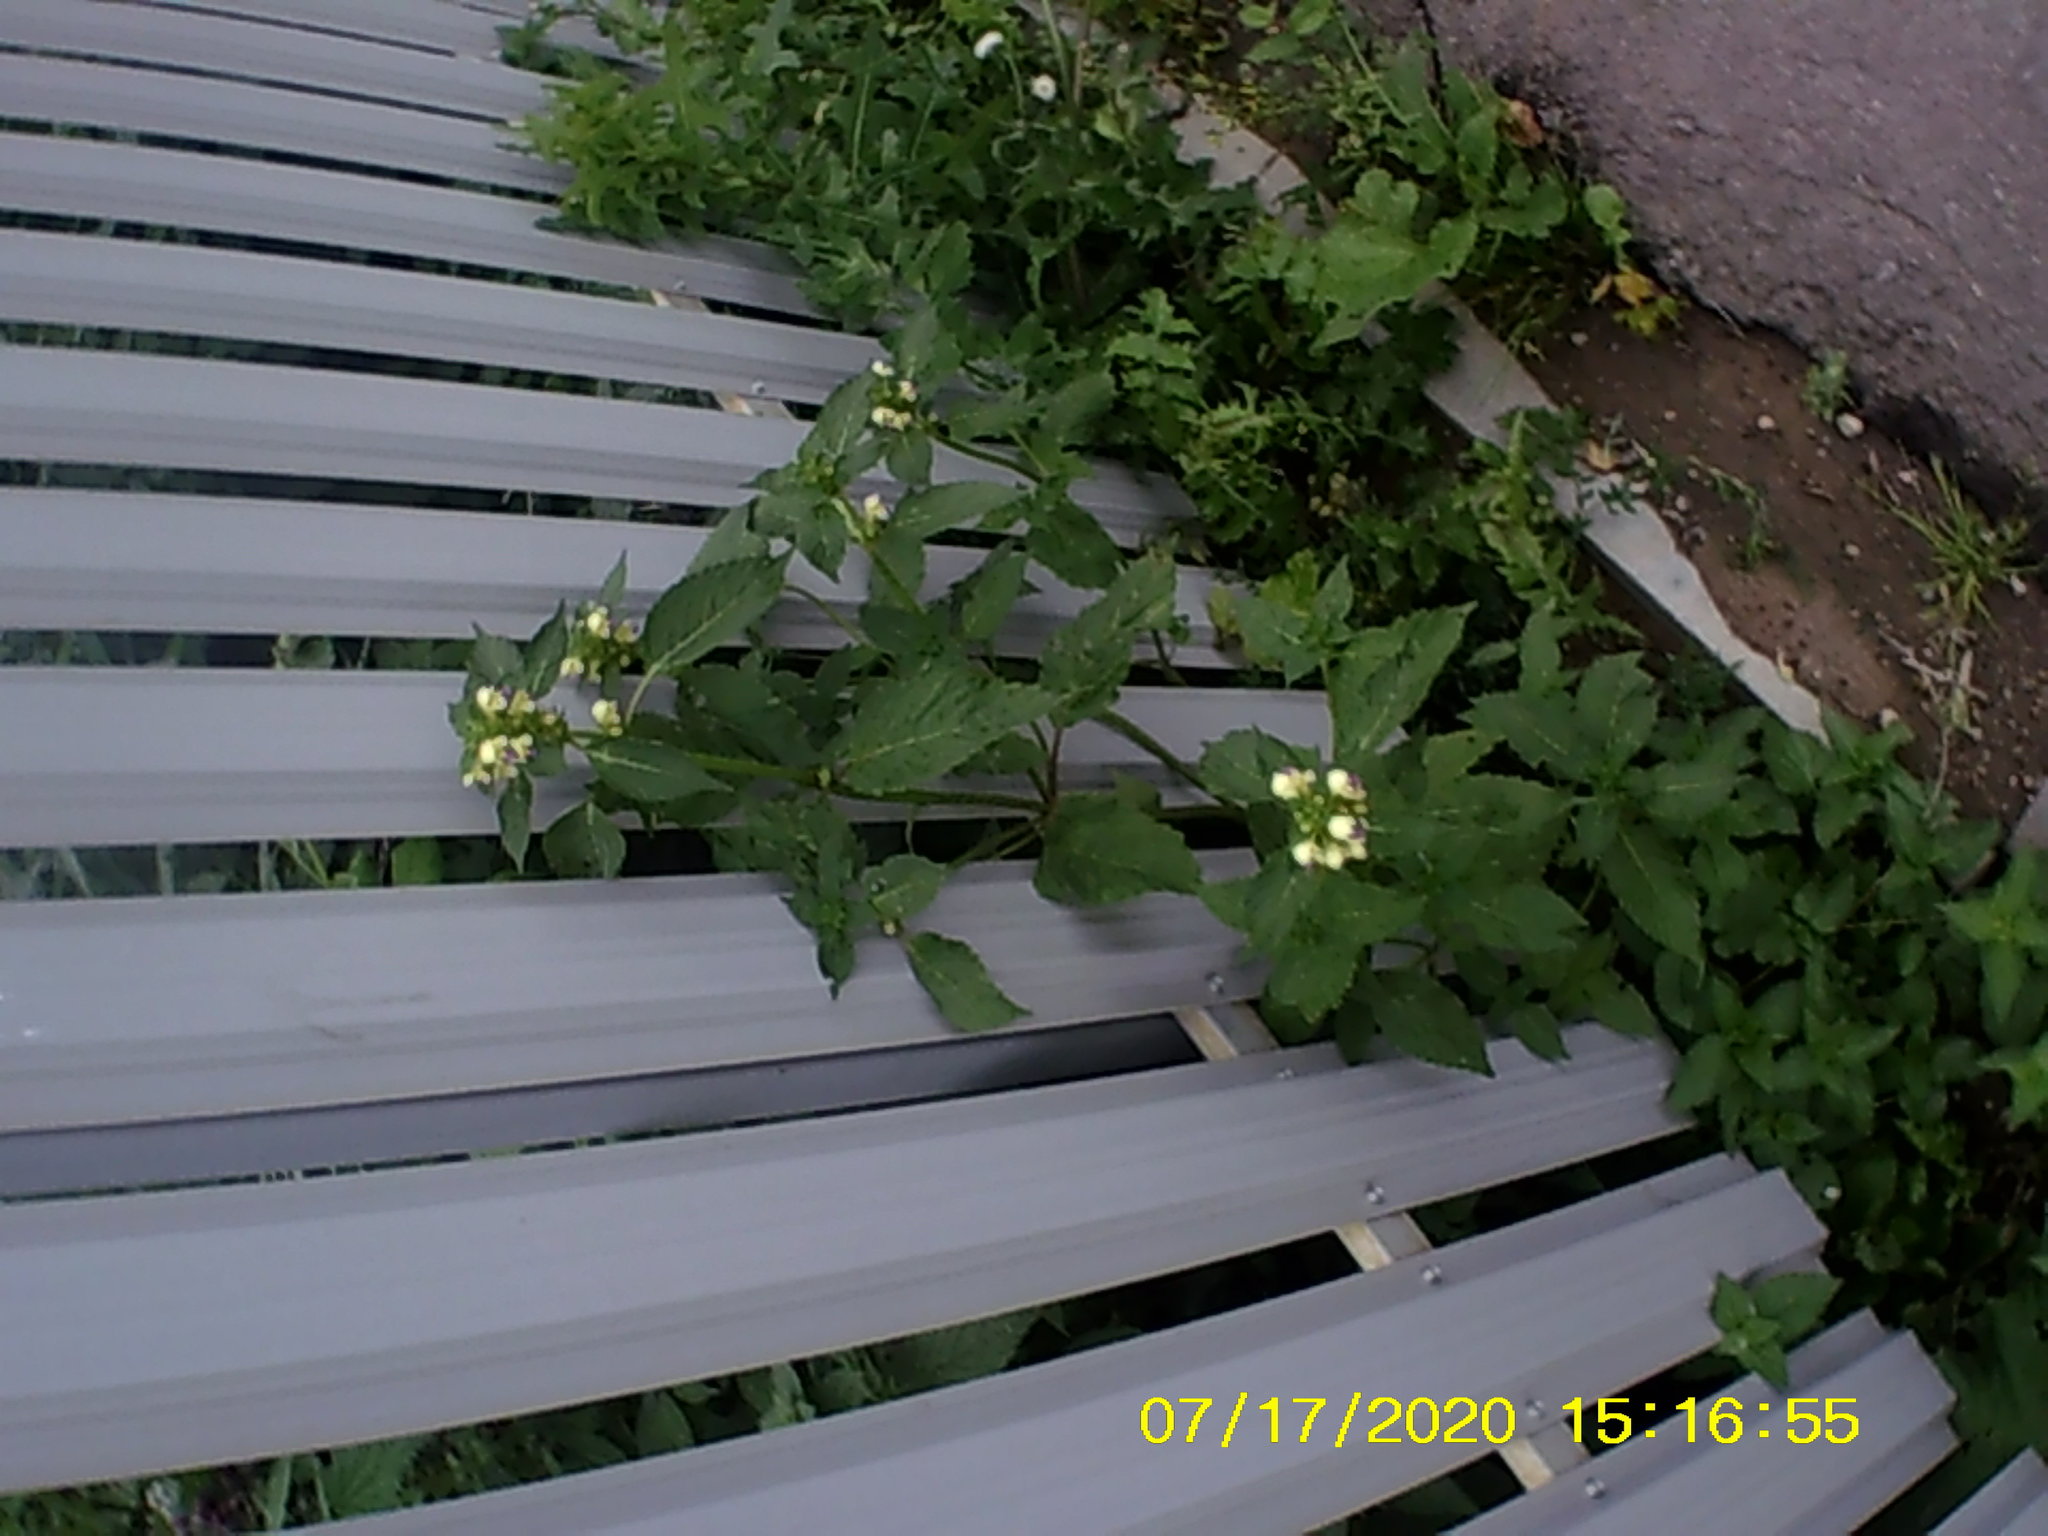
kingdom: Plantae
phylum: Tracheophyta
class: Magnoliopsida
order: Lamiales
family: Lamiaceae
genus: Galeopsis
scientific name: Galeopsis speciosa
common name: Large-flowered hemp-nettle
